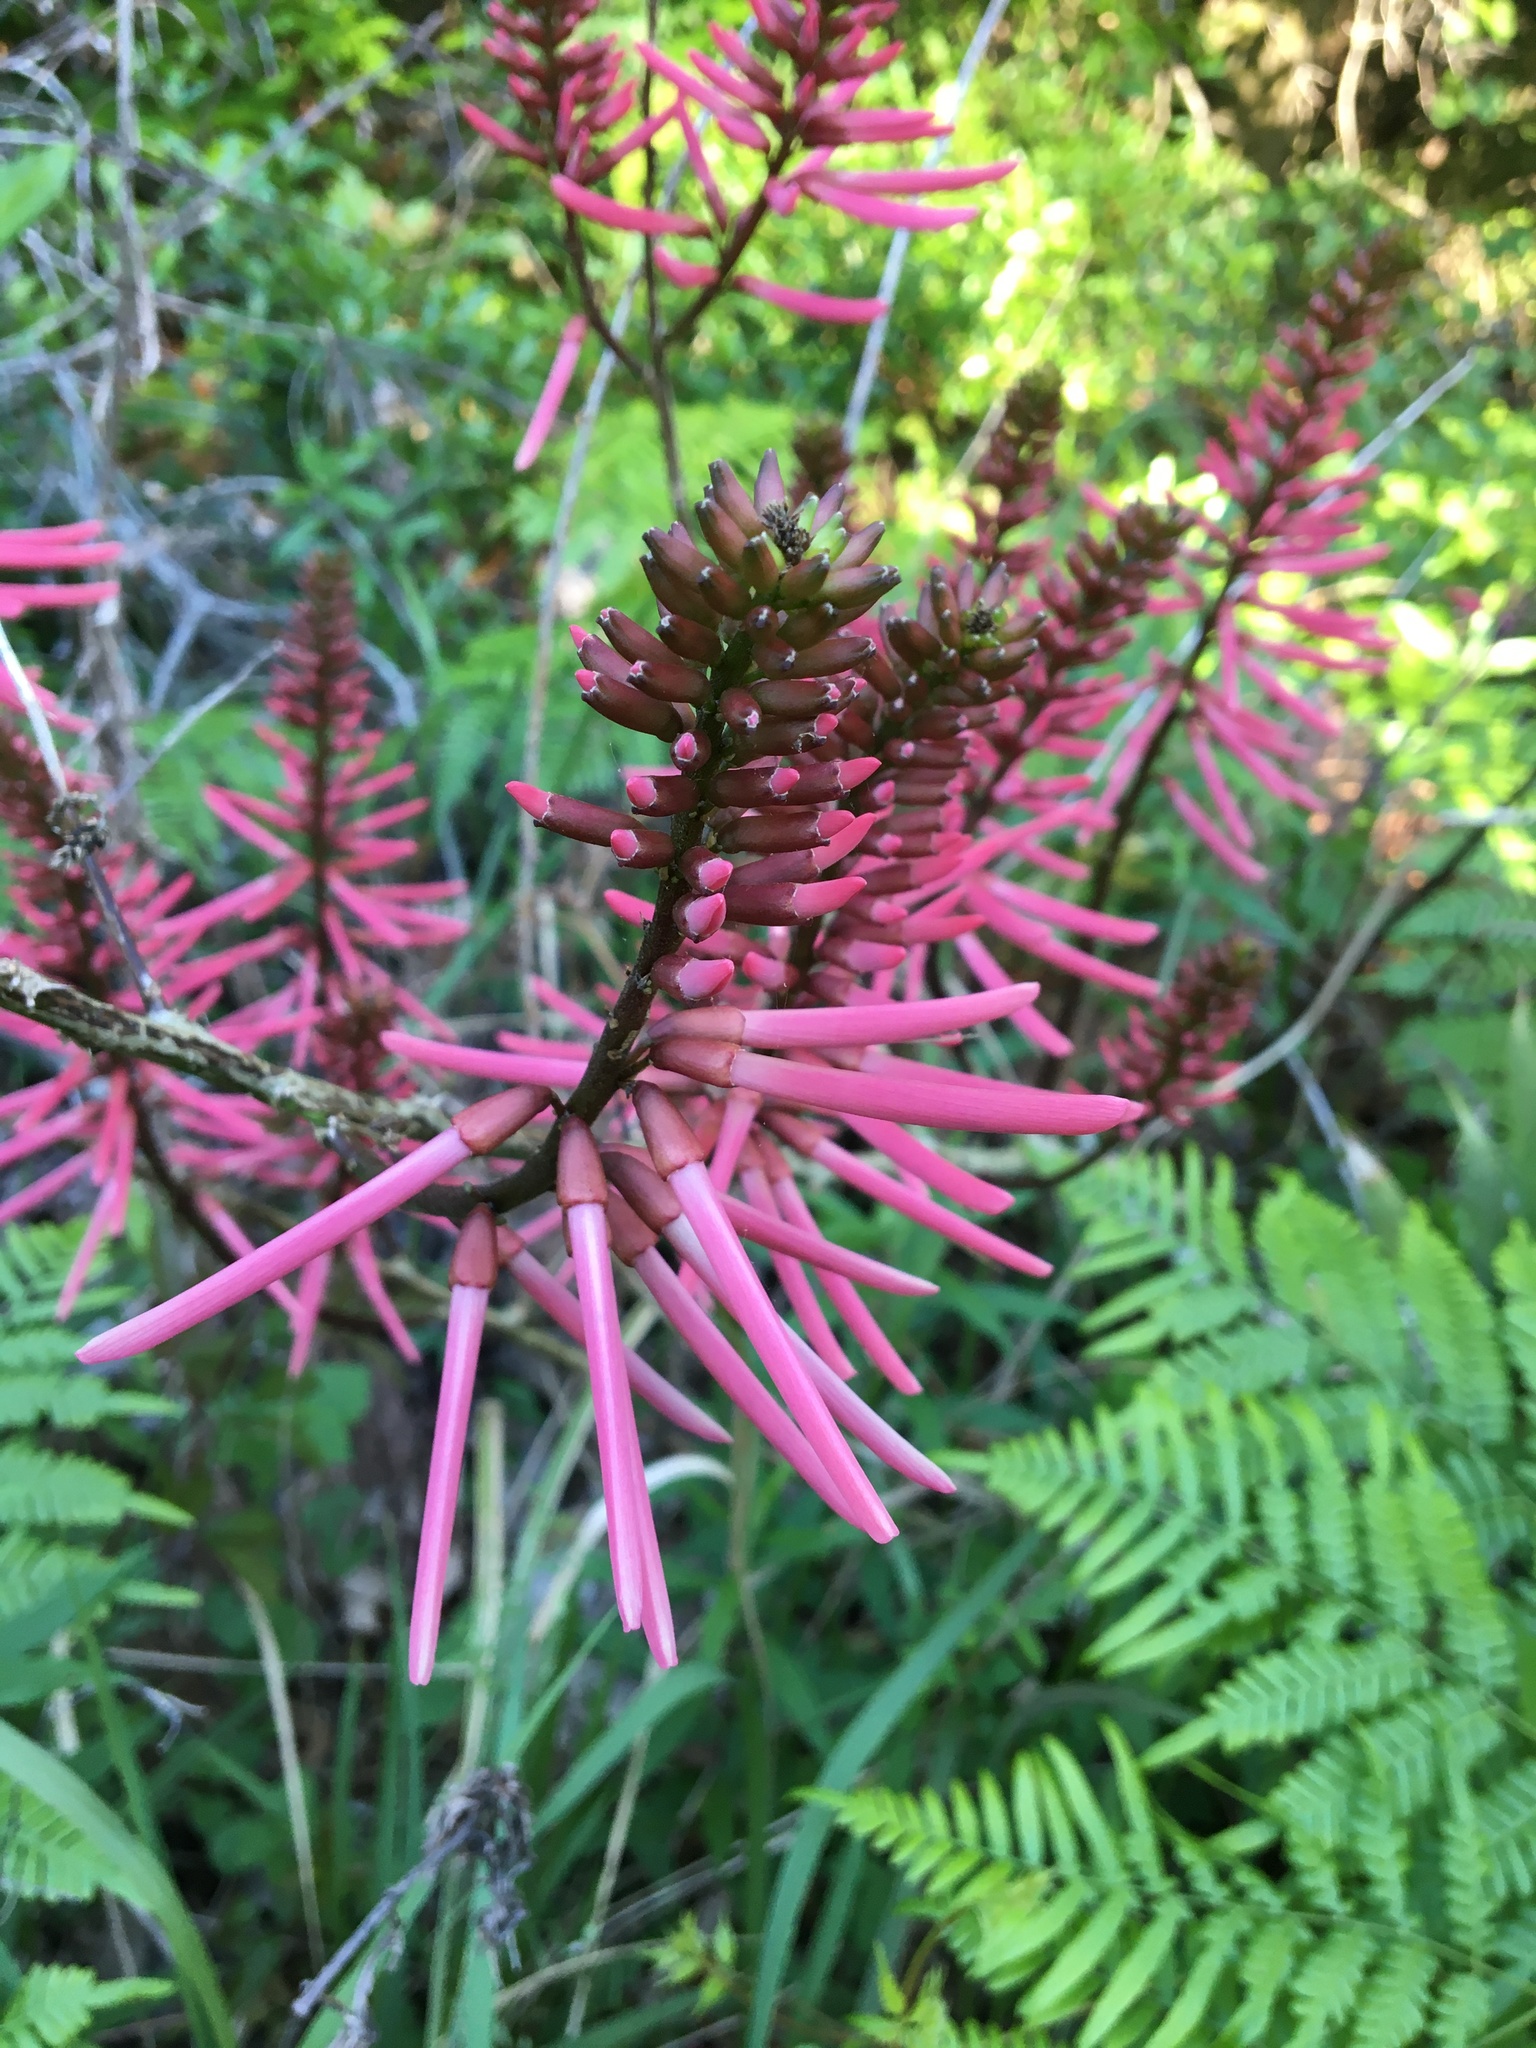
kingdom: Plantae
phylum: Tracheophyta
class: Magnoliopsida
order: Fabales
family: Fabaceae
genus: Erythrina
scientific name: Erythrina herbacea
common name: Coral-bean
